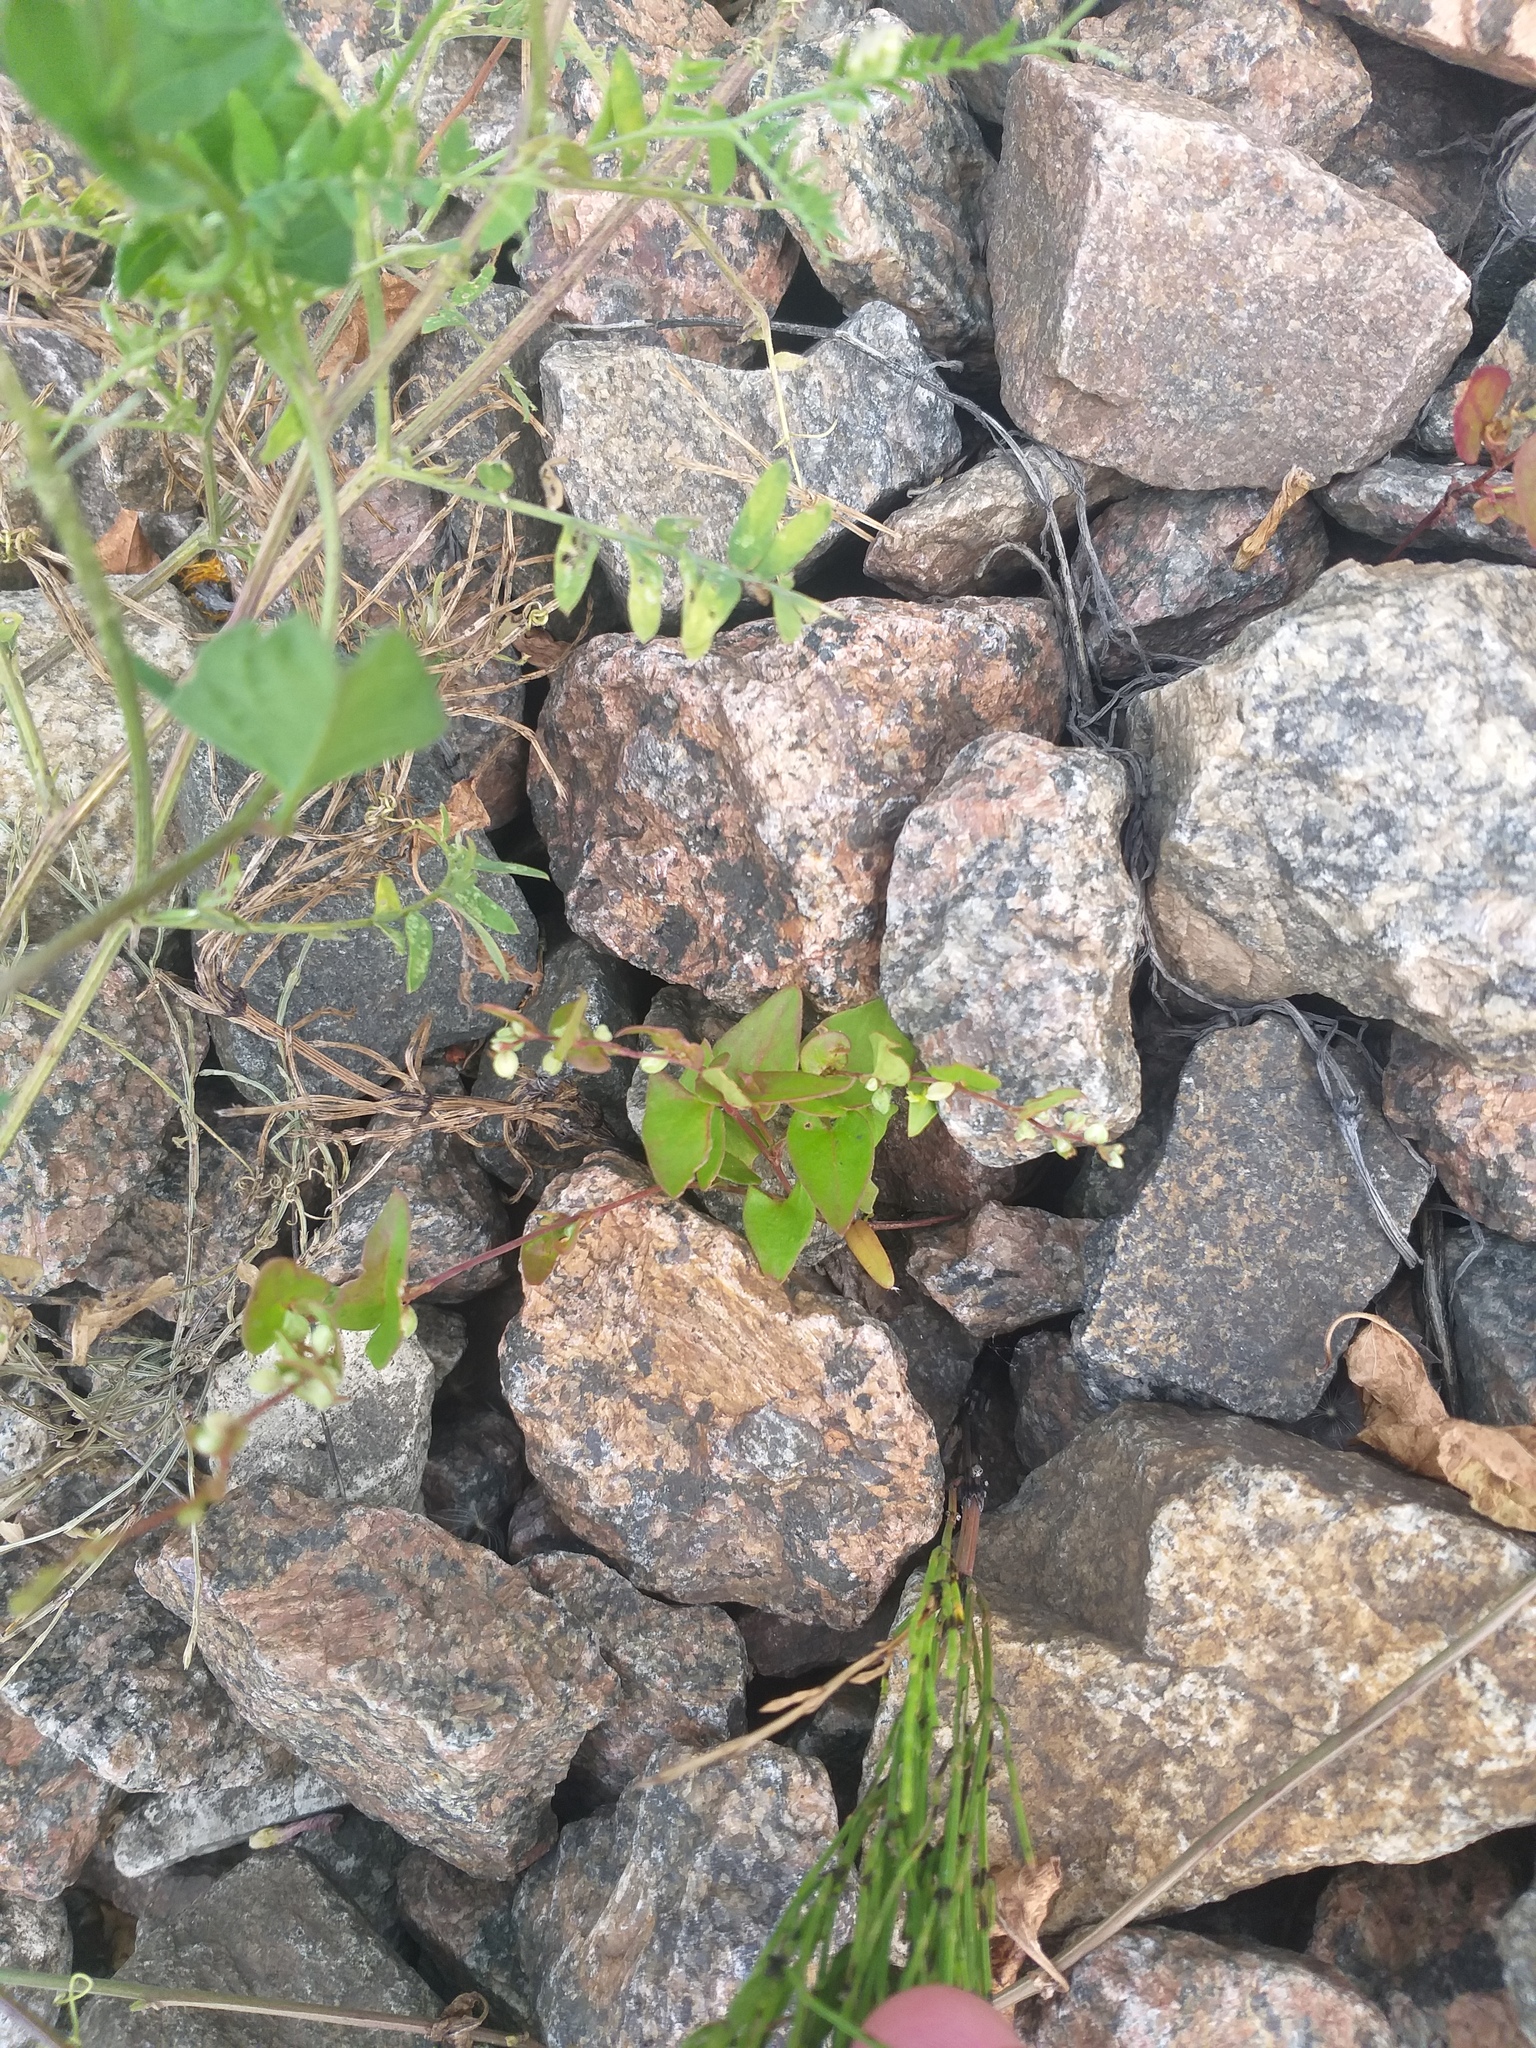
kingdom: Plantae
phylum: Tracheophyta
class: Magnoliopsida
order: Caryophyllales
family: Polygonaceae
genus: Fallopia
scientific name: Fallopia convolvulus
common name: Black bindweed
